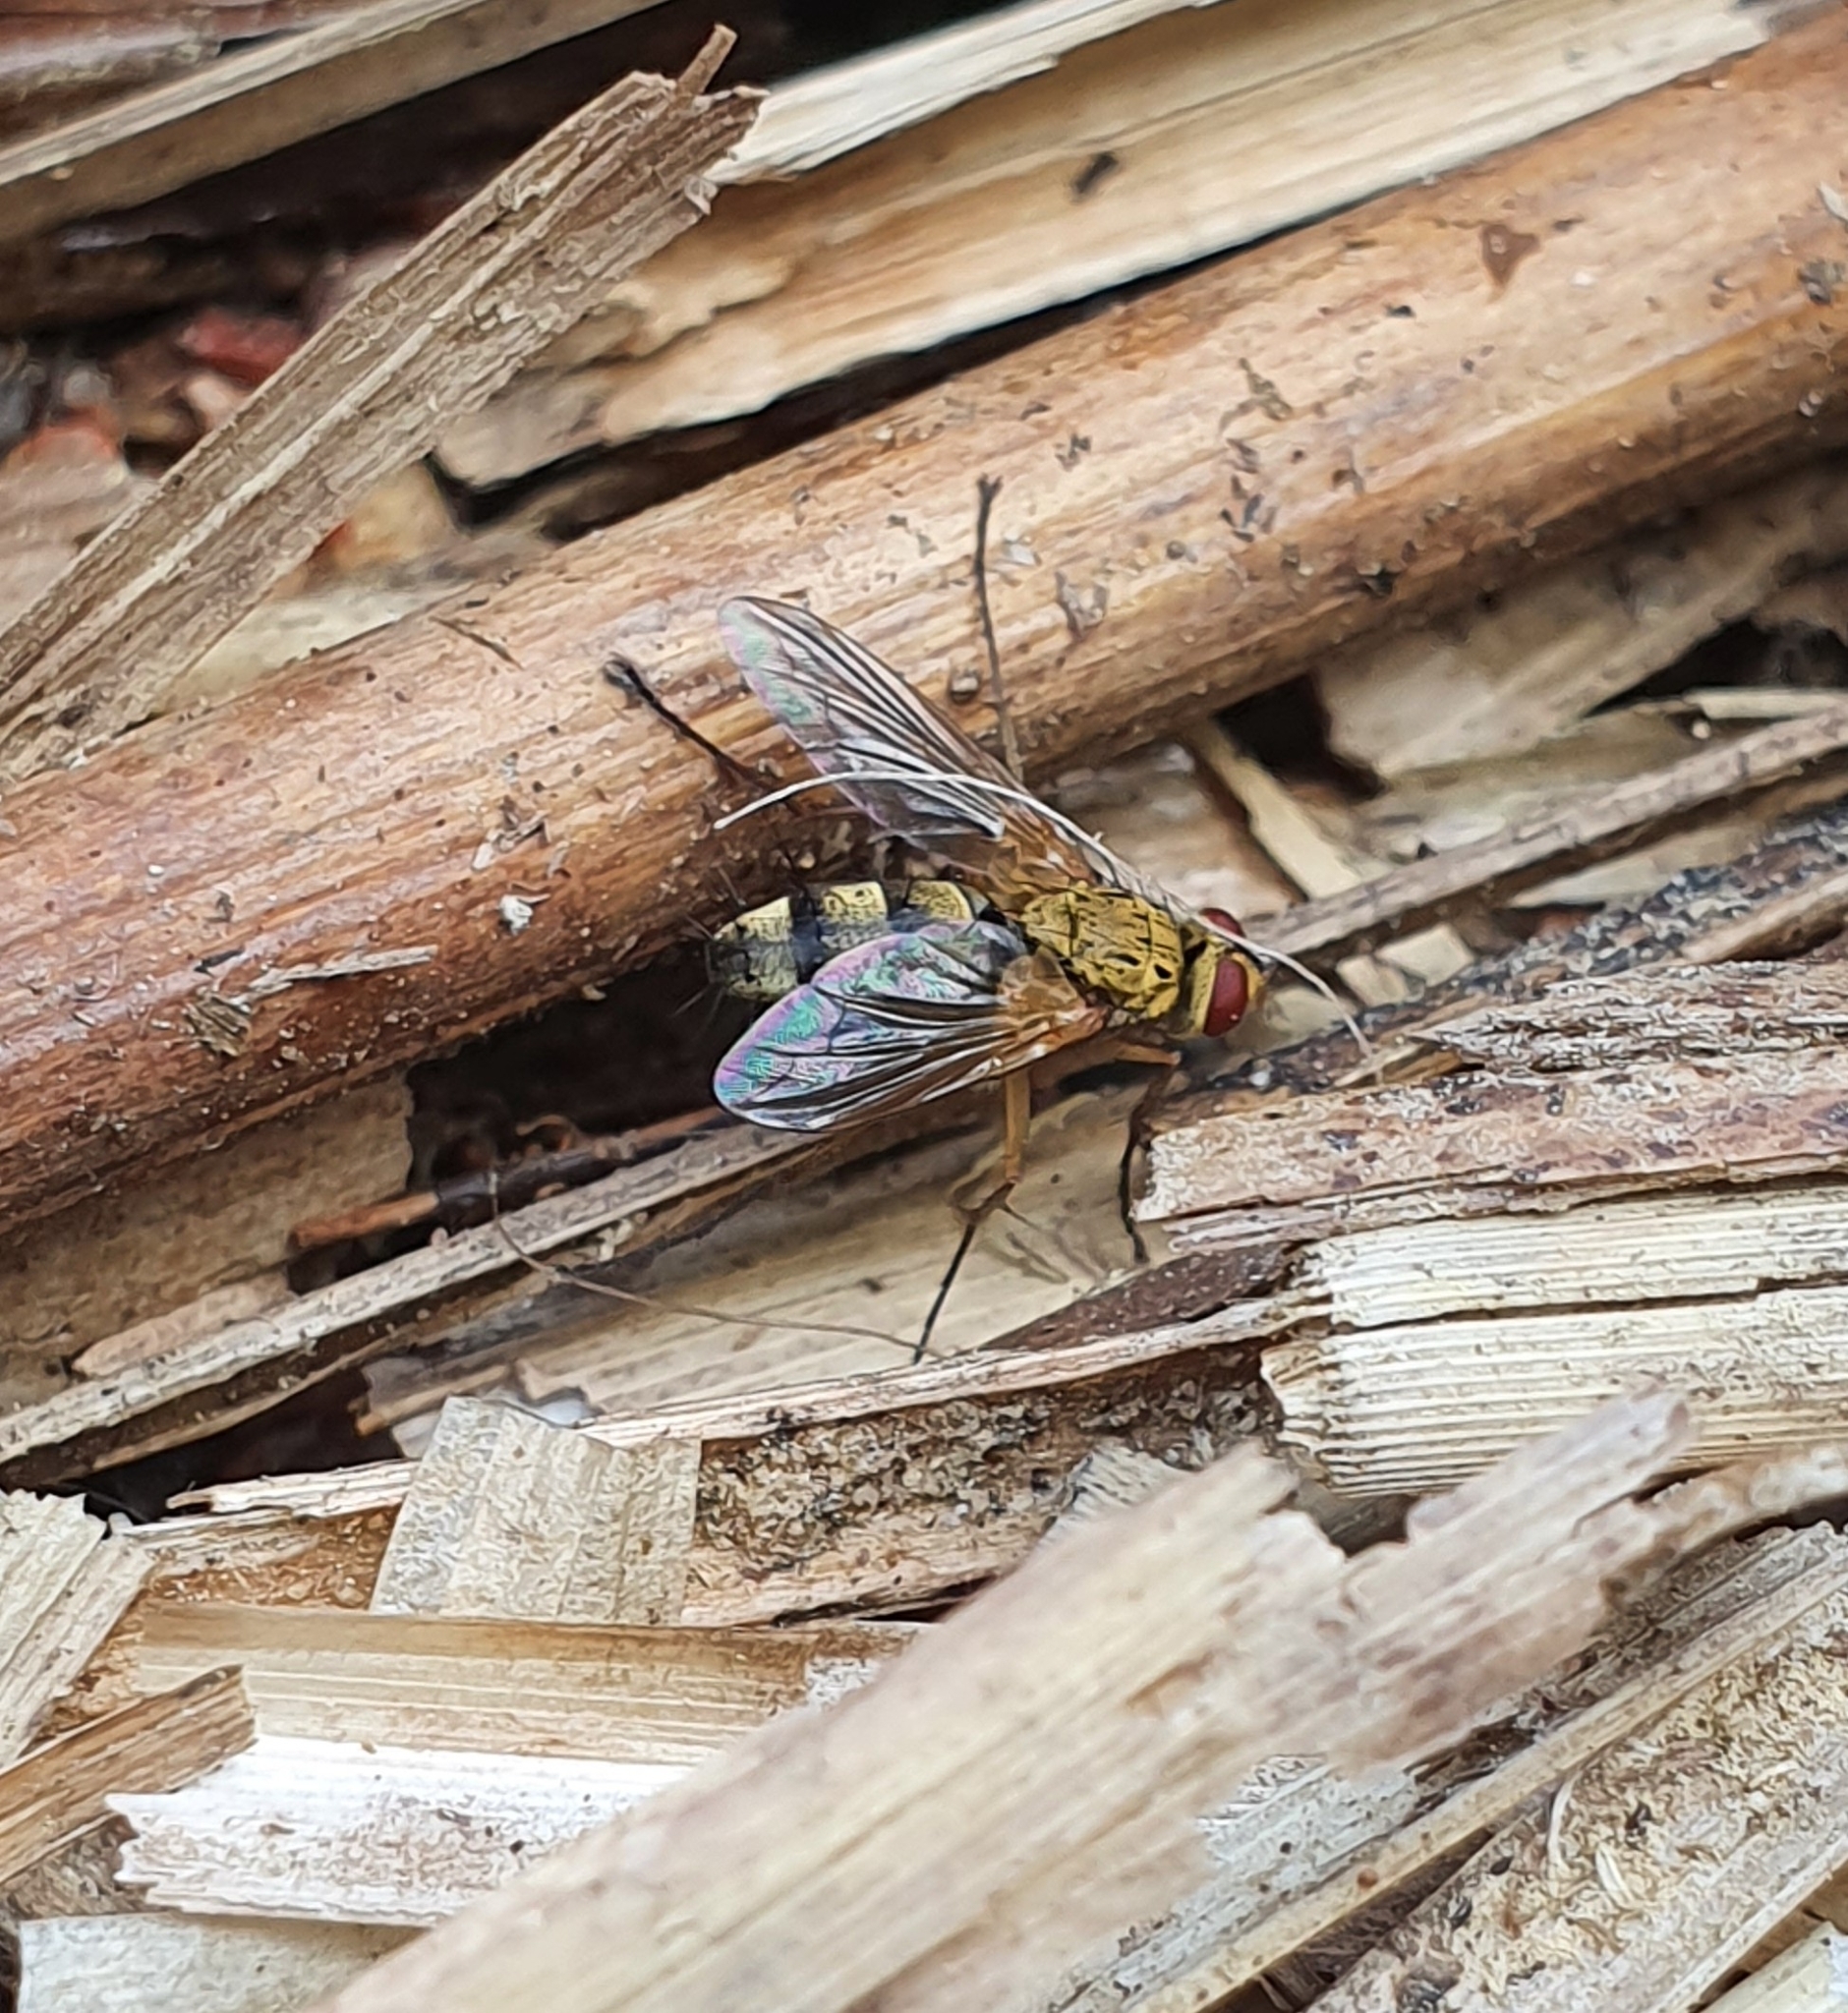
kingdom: Animalia
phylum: Arthropoda
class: Insecta
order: Diptera
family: Tachinidae
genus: Dexiosoma
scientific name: Dexiosoma caninum
